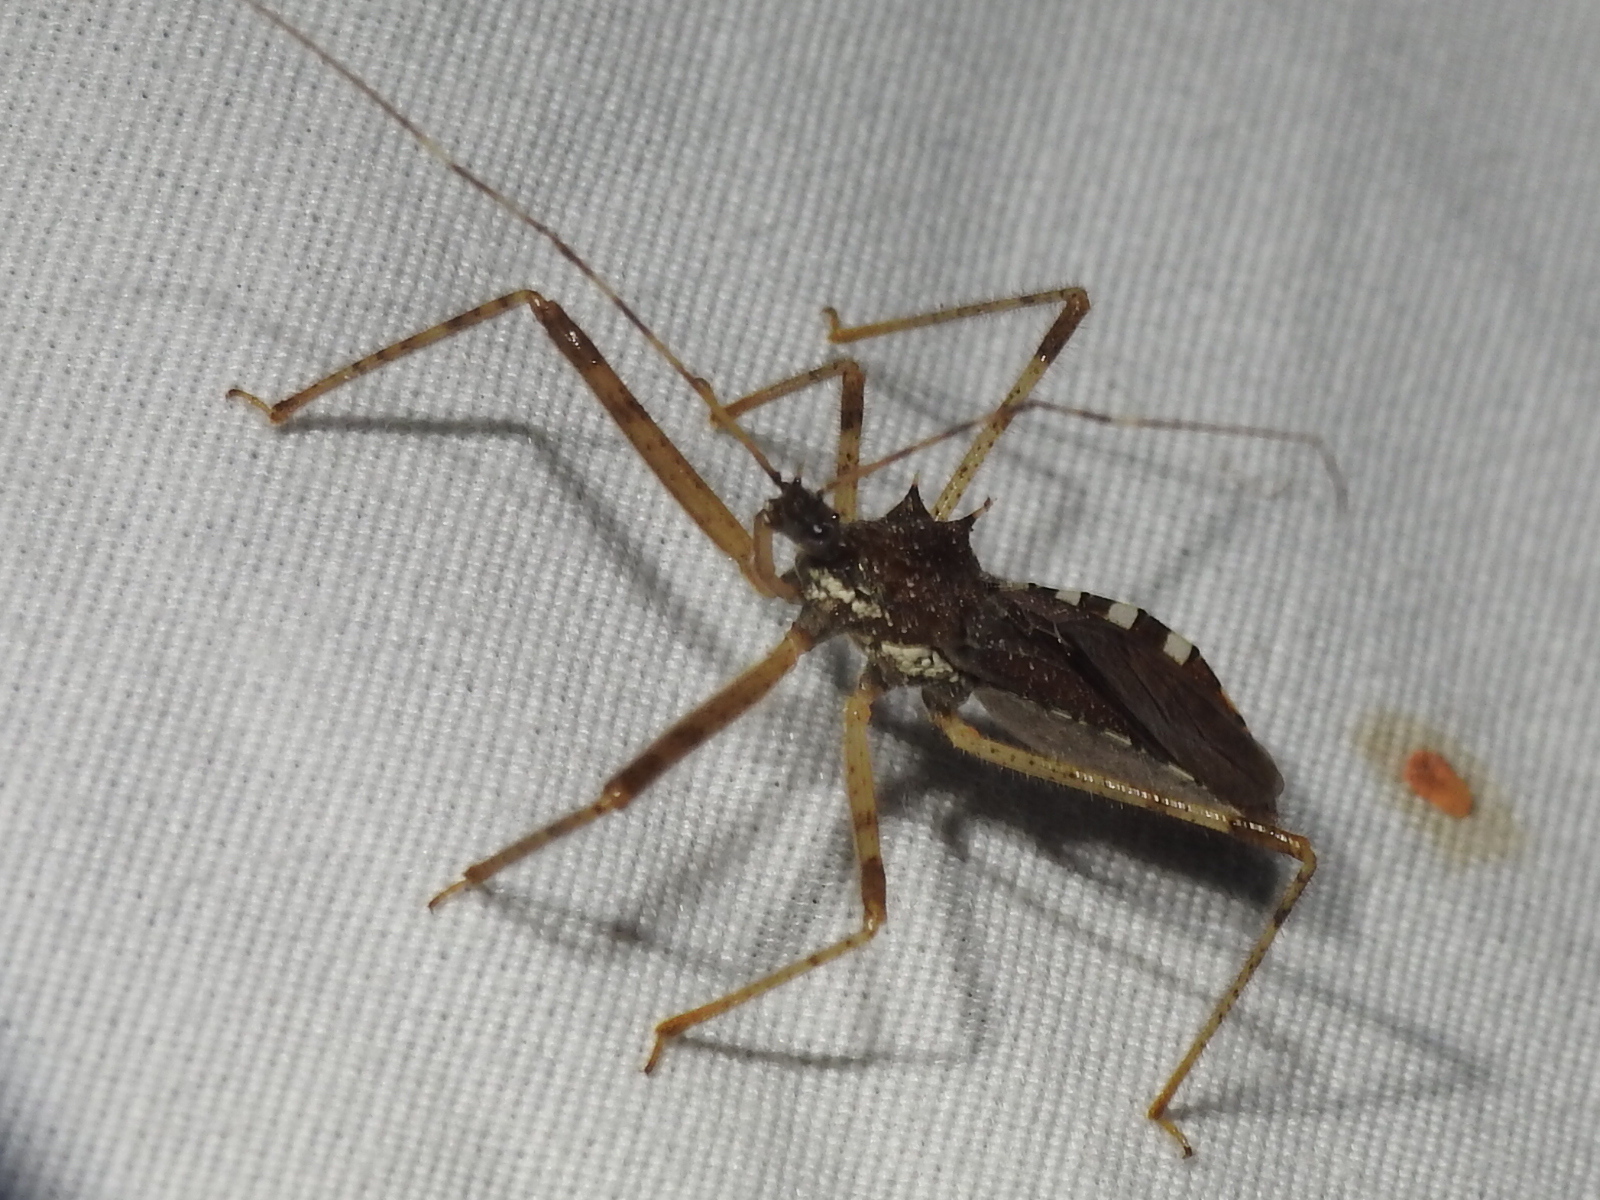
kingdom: Animalia
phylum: Arthropoda
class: Insecta
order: Hemiptera
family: Reduviidae
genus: Rocconota
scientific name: Rocconota annulicornis
